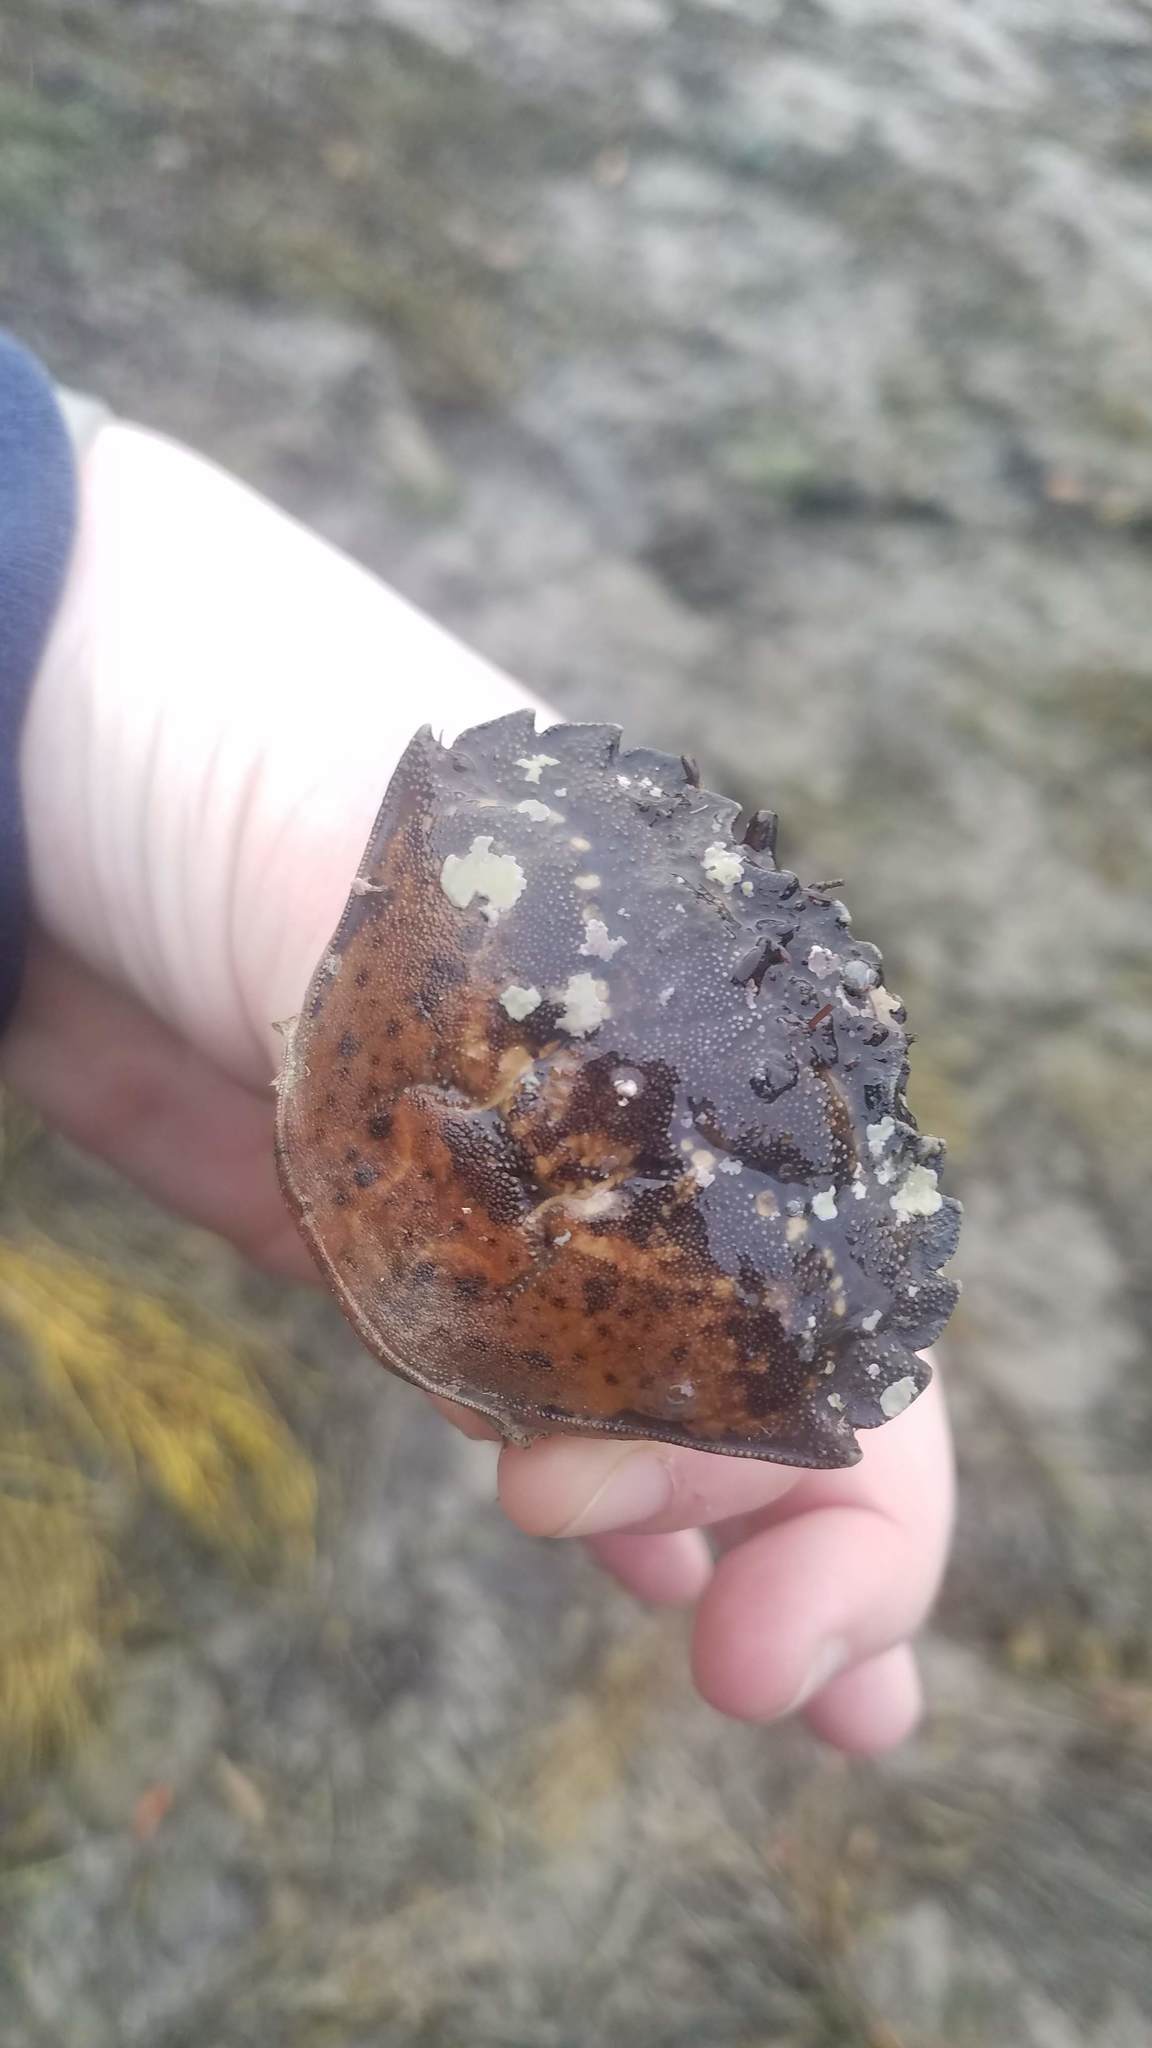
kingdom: Animalia
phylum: Arthropoda
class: Malacostraca
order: Decapoda
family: Carcinidae
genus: Carcinus
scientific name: Carcinus maenas
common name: European green crab
